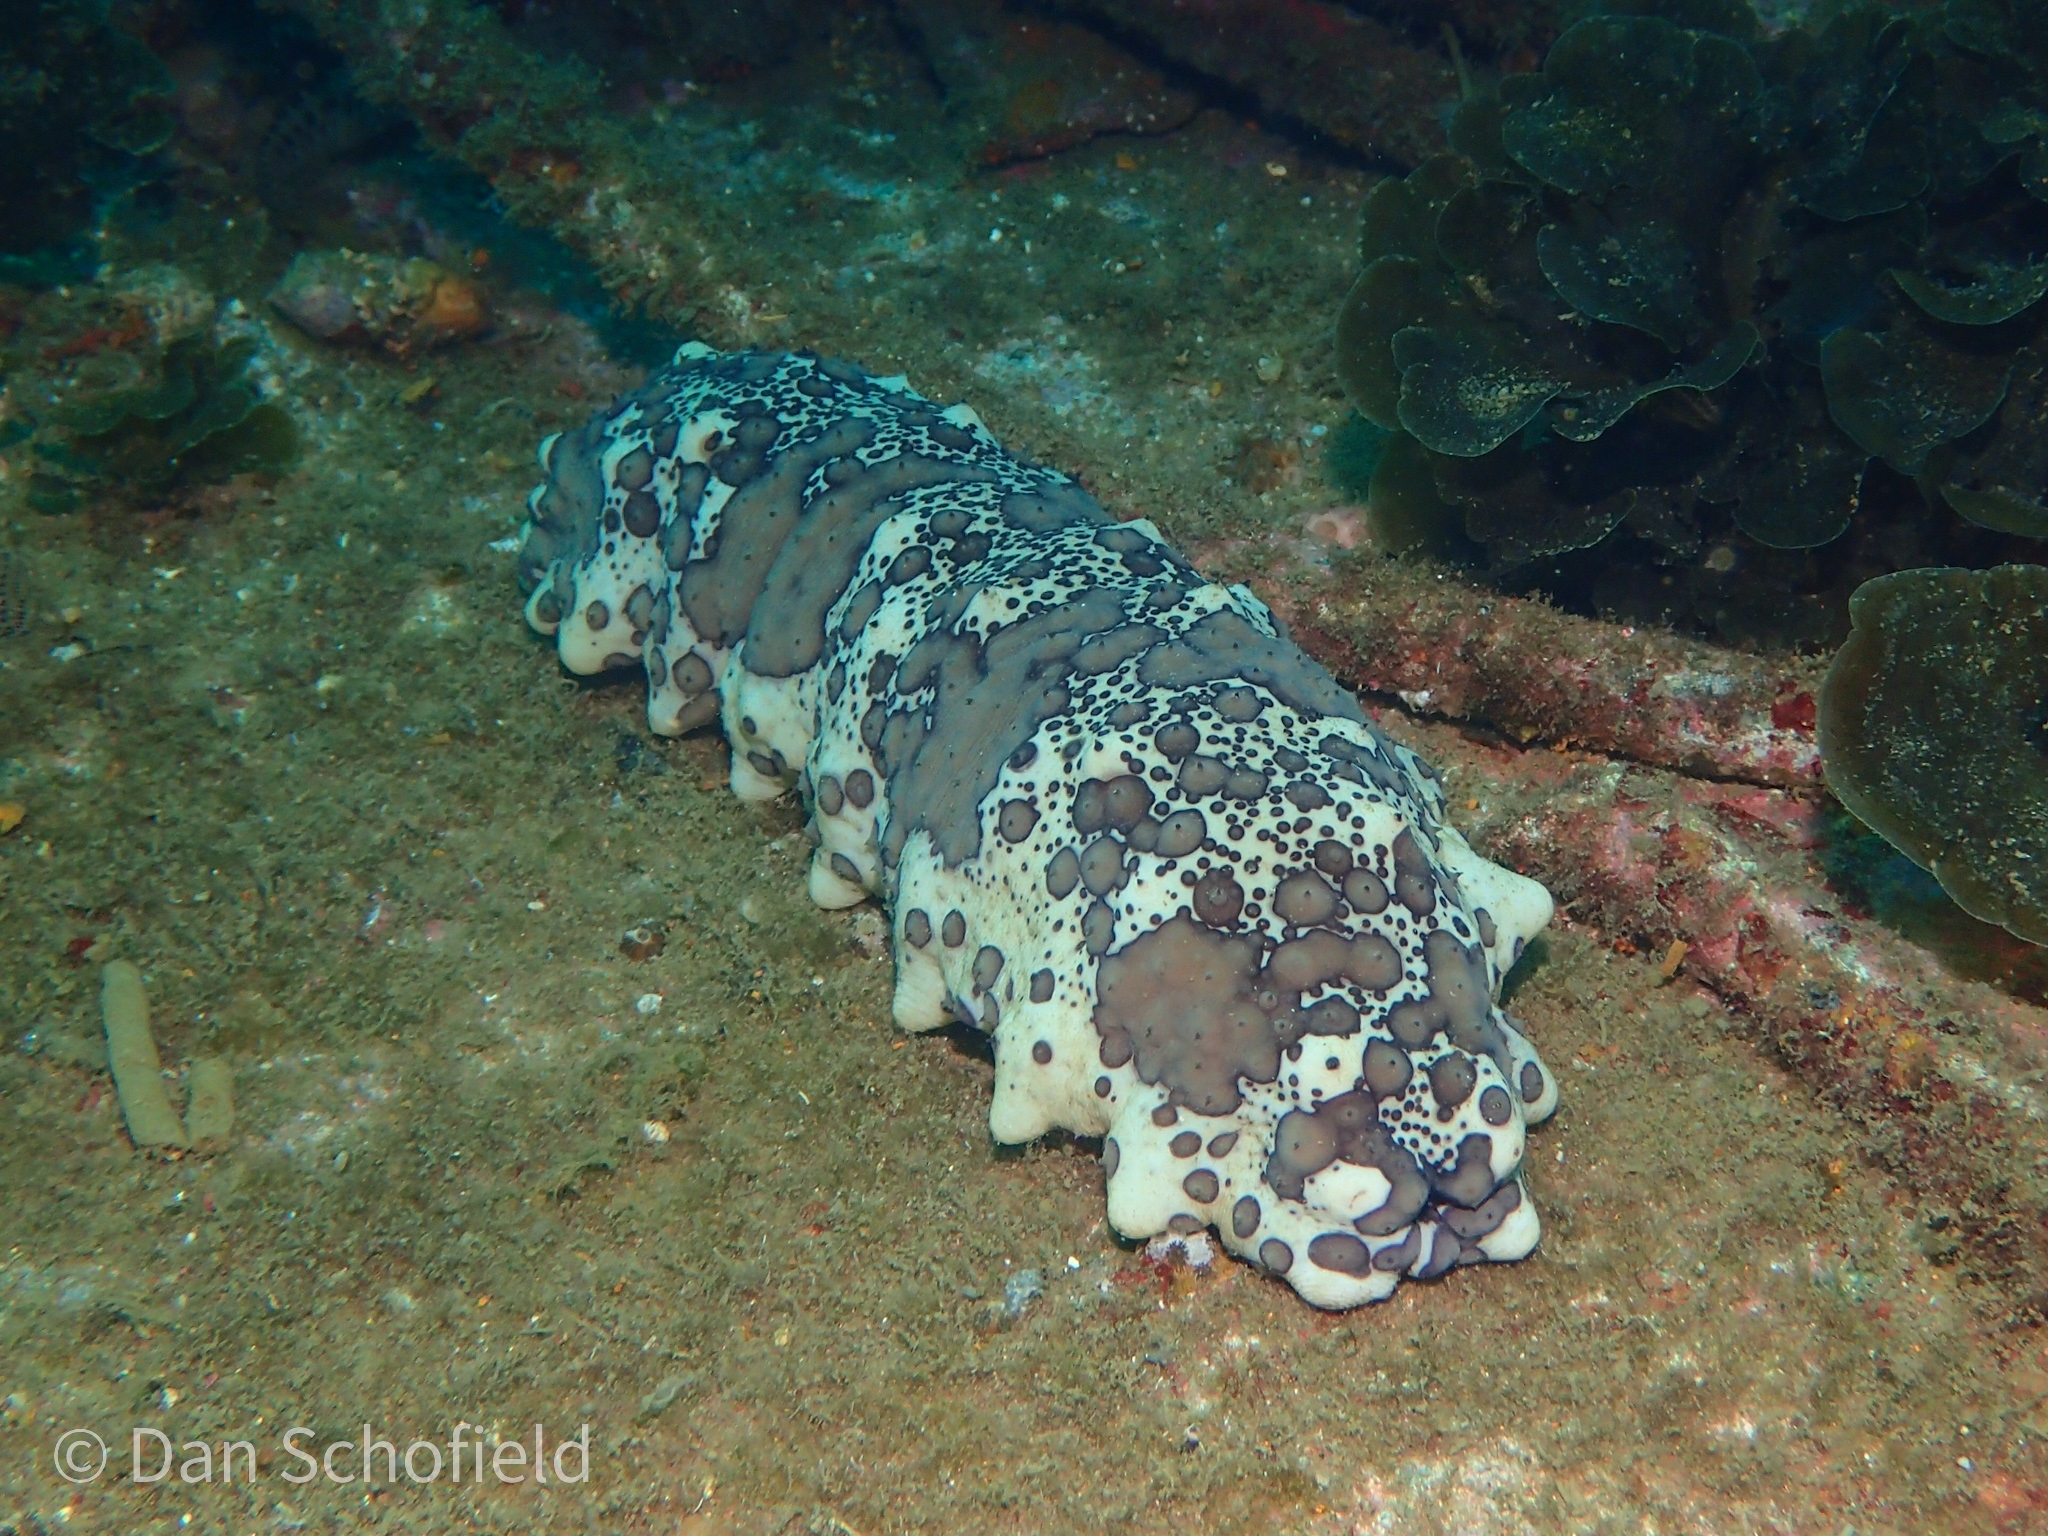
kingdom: Animalia
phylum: Echinodermata
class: Holothuroidea
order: Synallactida
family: Stichopodidae
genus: Isostichopus
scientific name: Isostichopus badionotus
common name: Chocolate chip cucumber
